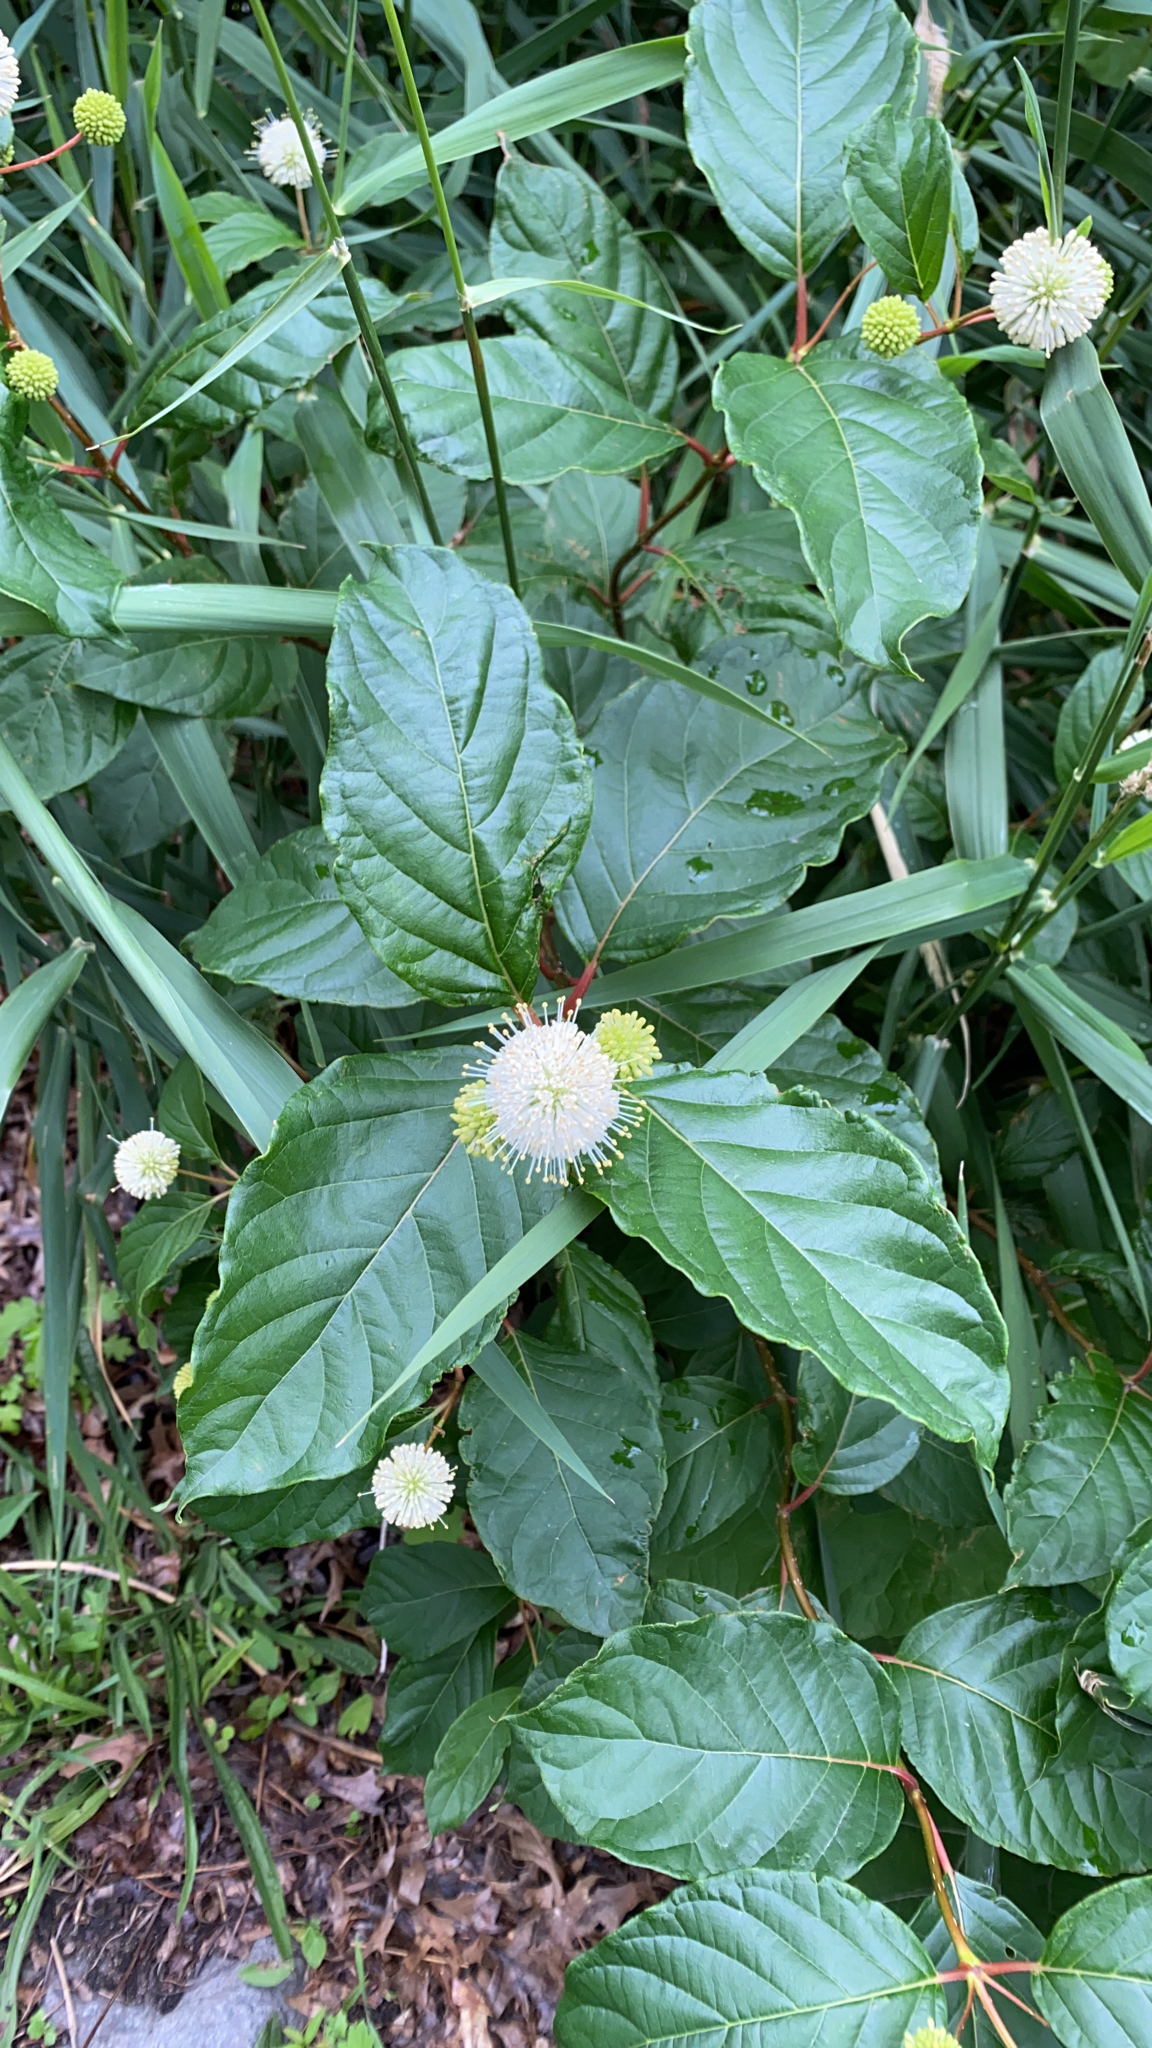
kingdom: Plantae
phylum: Tracheophyta
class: Magnoliopsida
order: Gentianales
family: Rubiaceae
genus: Cephalanthus
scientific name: Cephalanthus occidentalis
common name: Button-willow
